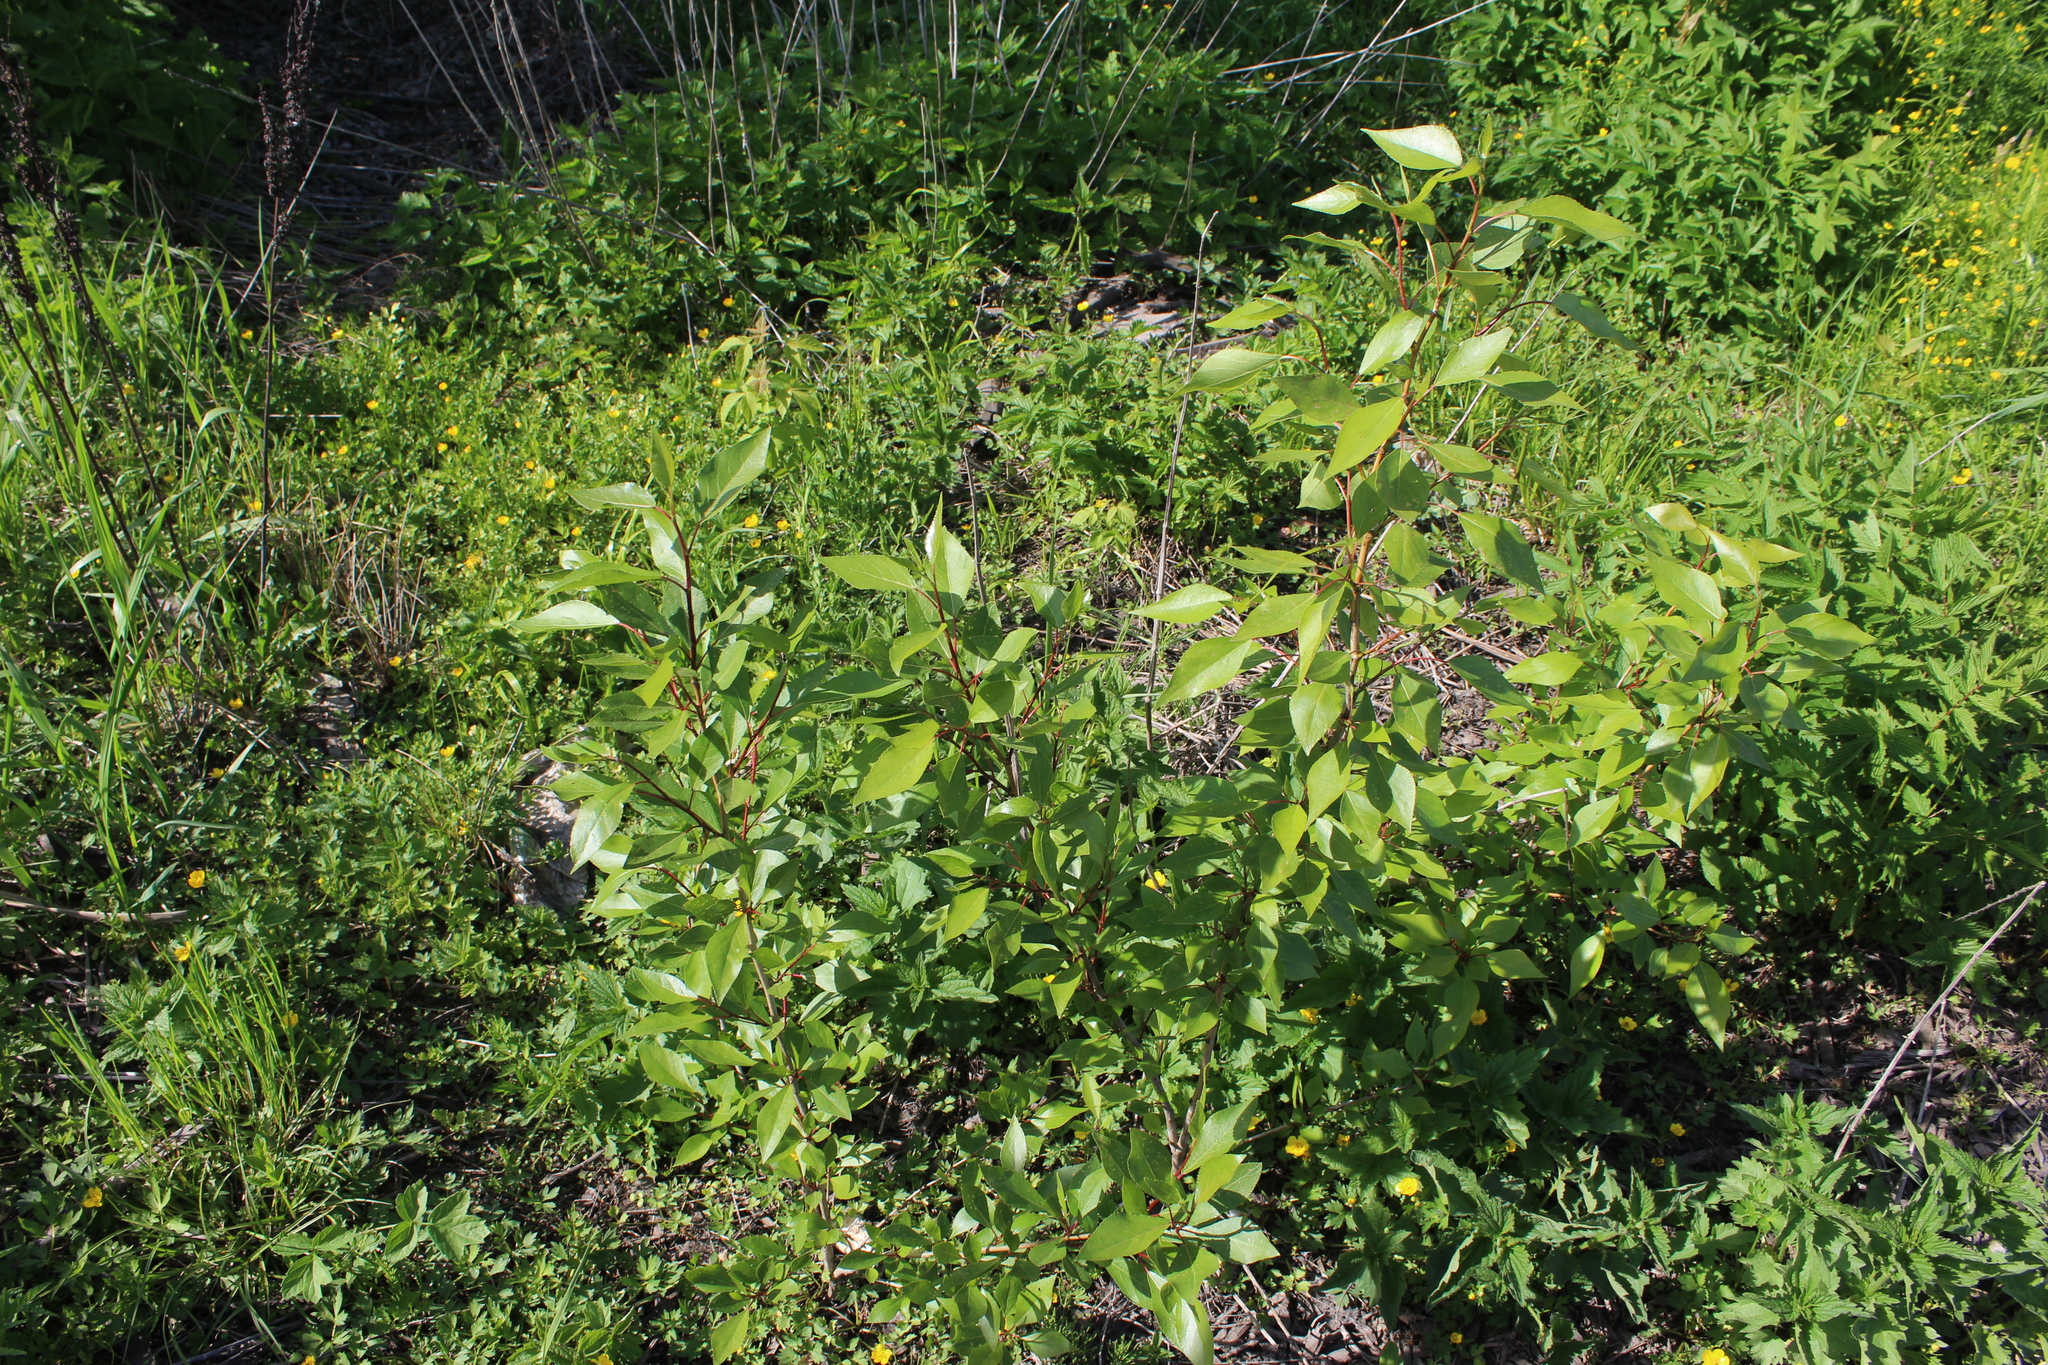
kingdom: Plantae
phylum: Tracheophyta
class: Magnoliopsida
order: Malpighiales
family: Salicaceae
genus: Populus
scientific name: Populus
